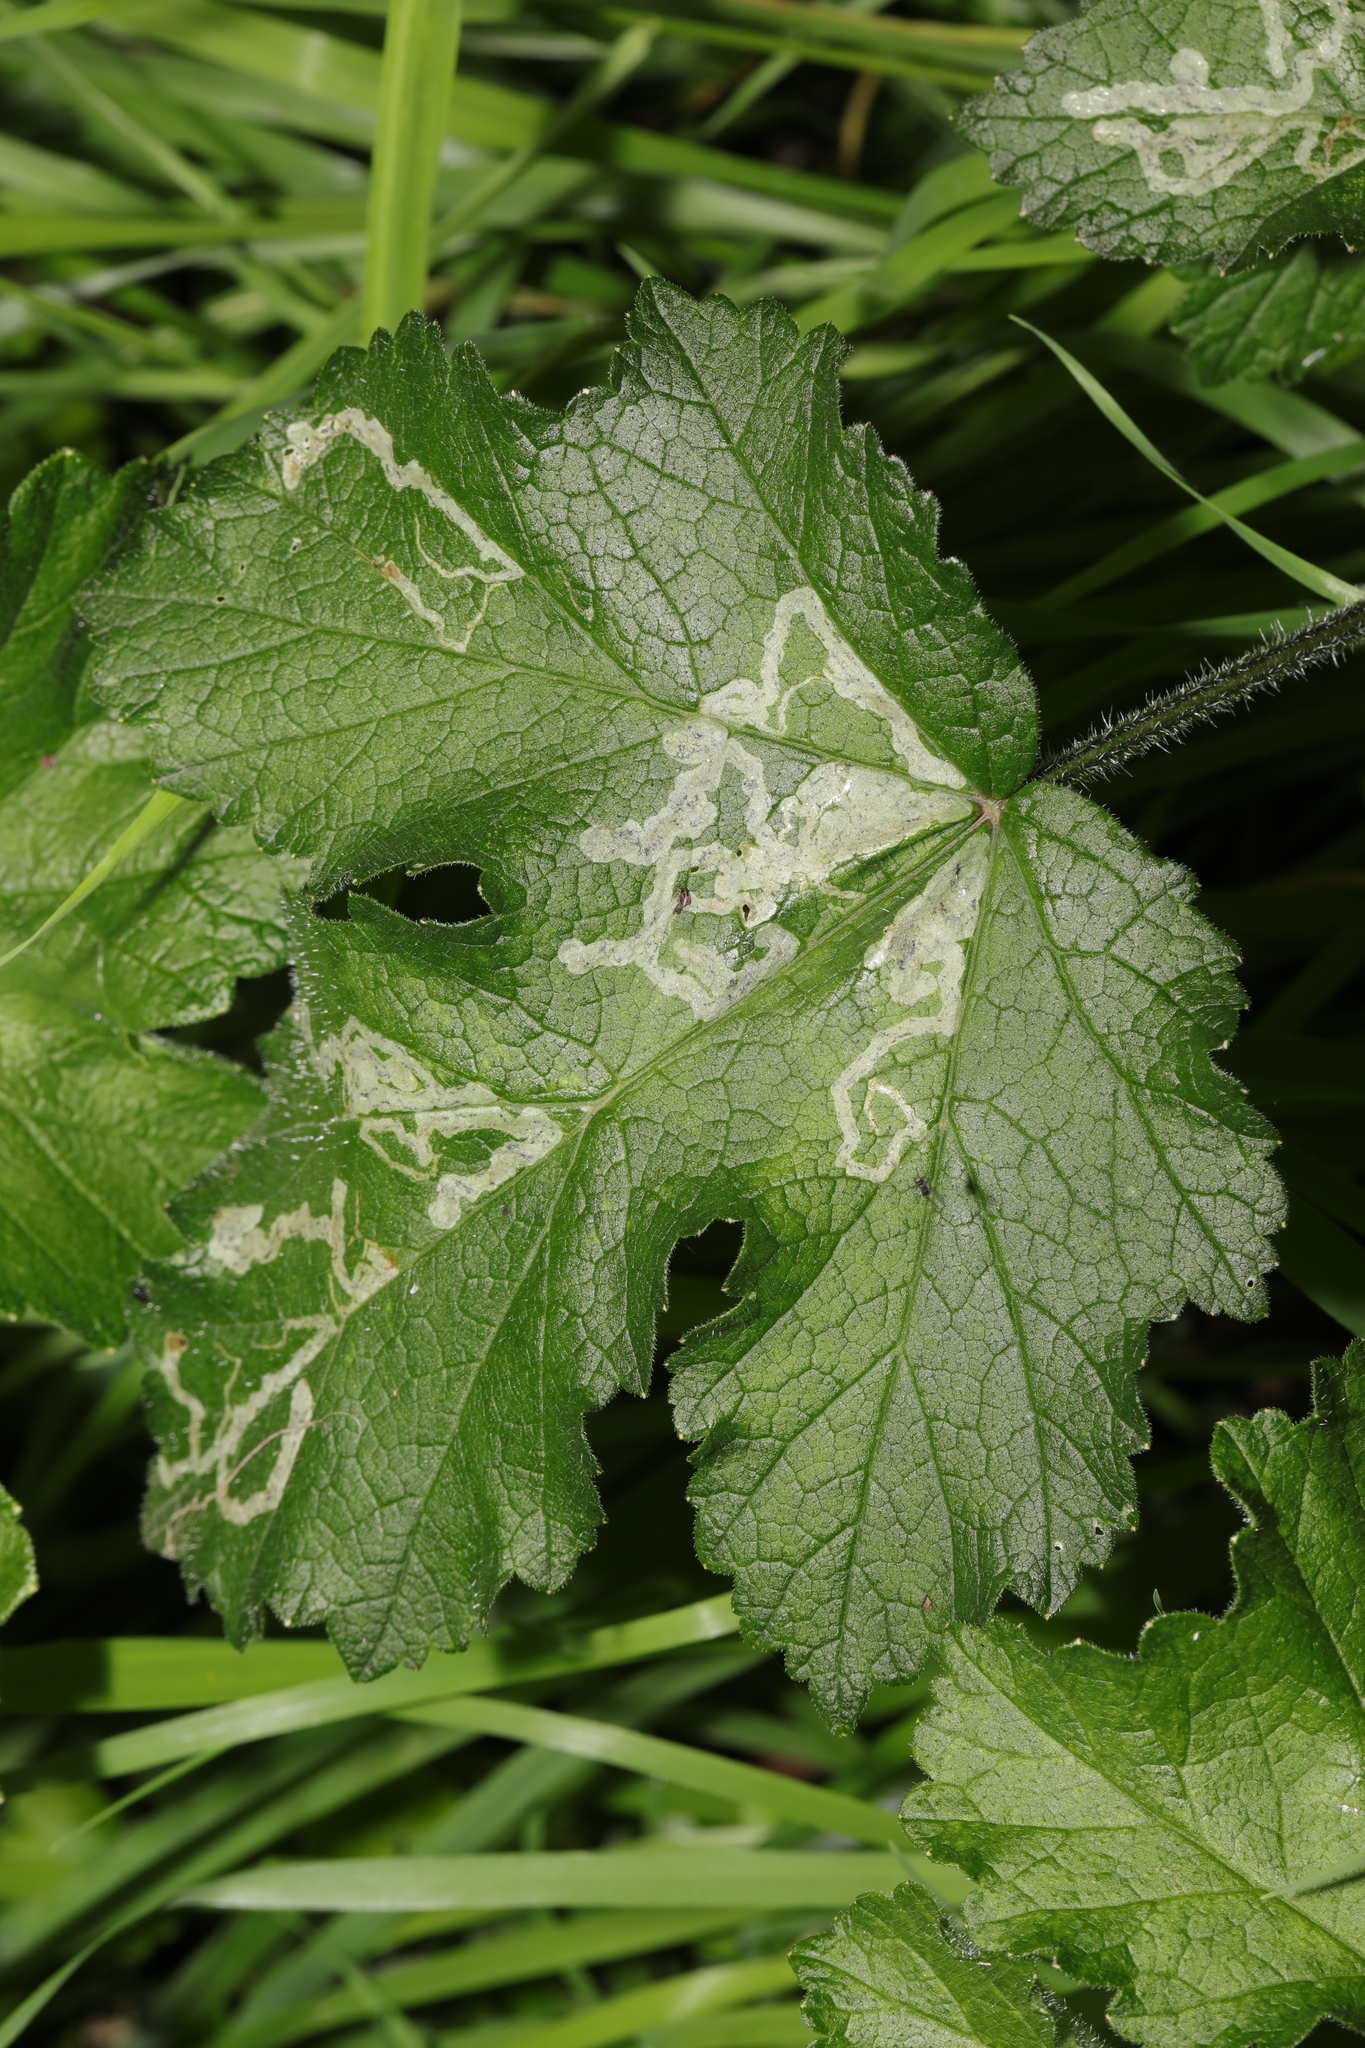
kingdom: Plantae
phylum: Tracheophyta
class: Magnoliopsida
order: Apiales
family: Apiaceae
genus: Heracleum
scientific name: Heracleum sphondylium
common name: Hogweed
